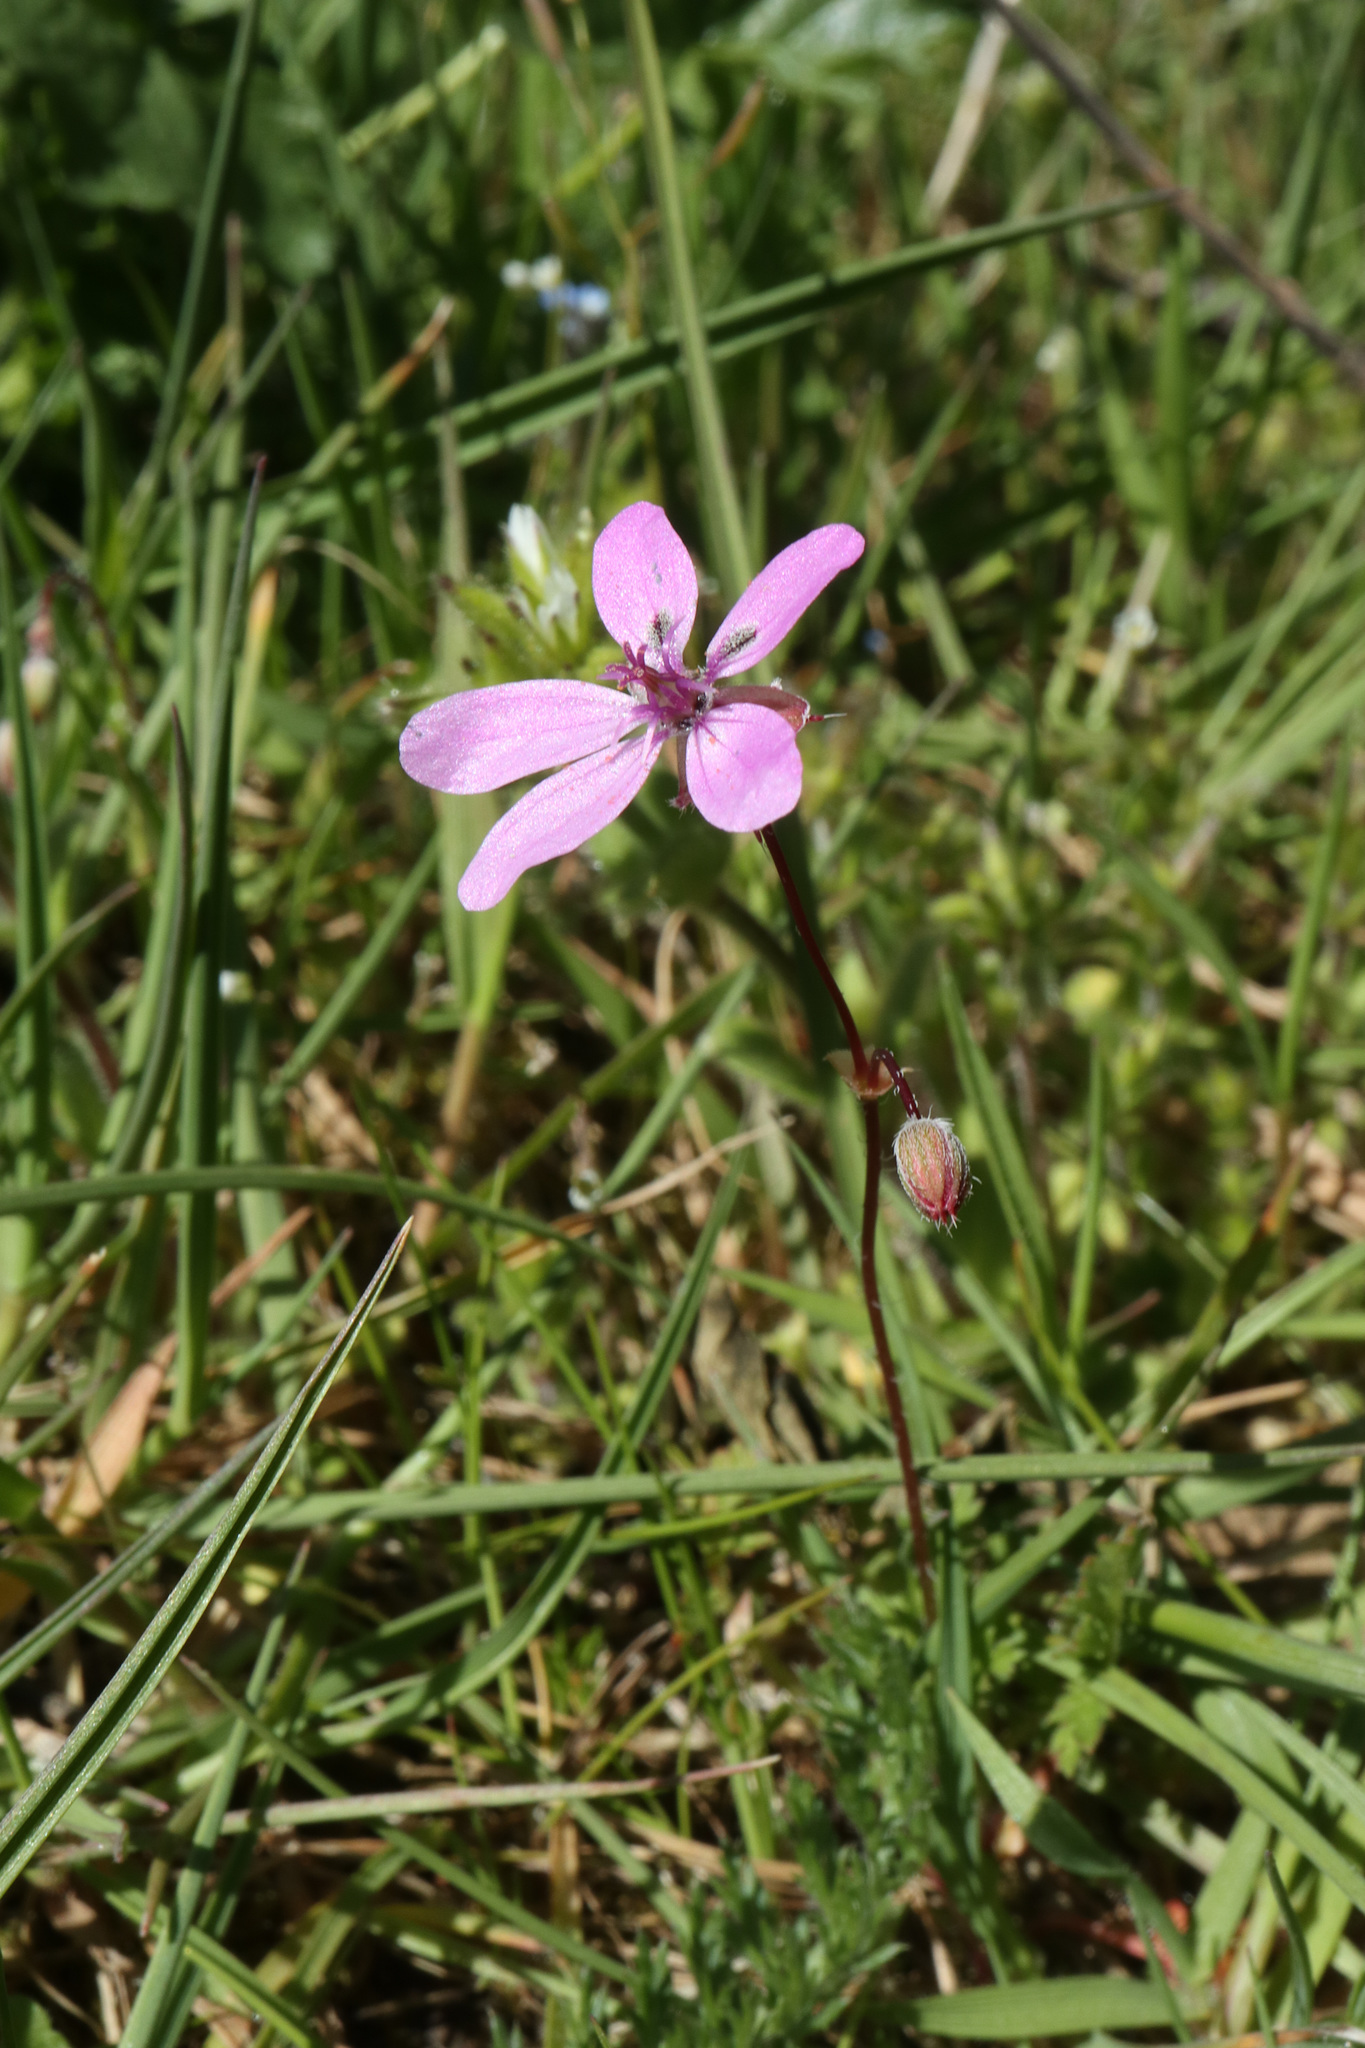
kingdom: Plantae
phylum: Tracheophyta
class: Magnoliopsida
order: Geraniales
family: Geraniaceae
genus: Erodium
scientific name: Erodium cicutarium
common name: Common stork's-bill
